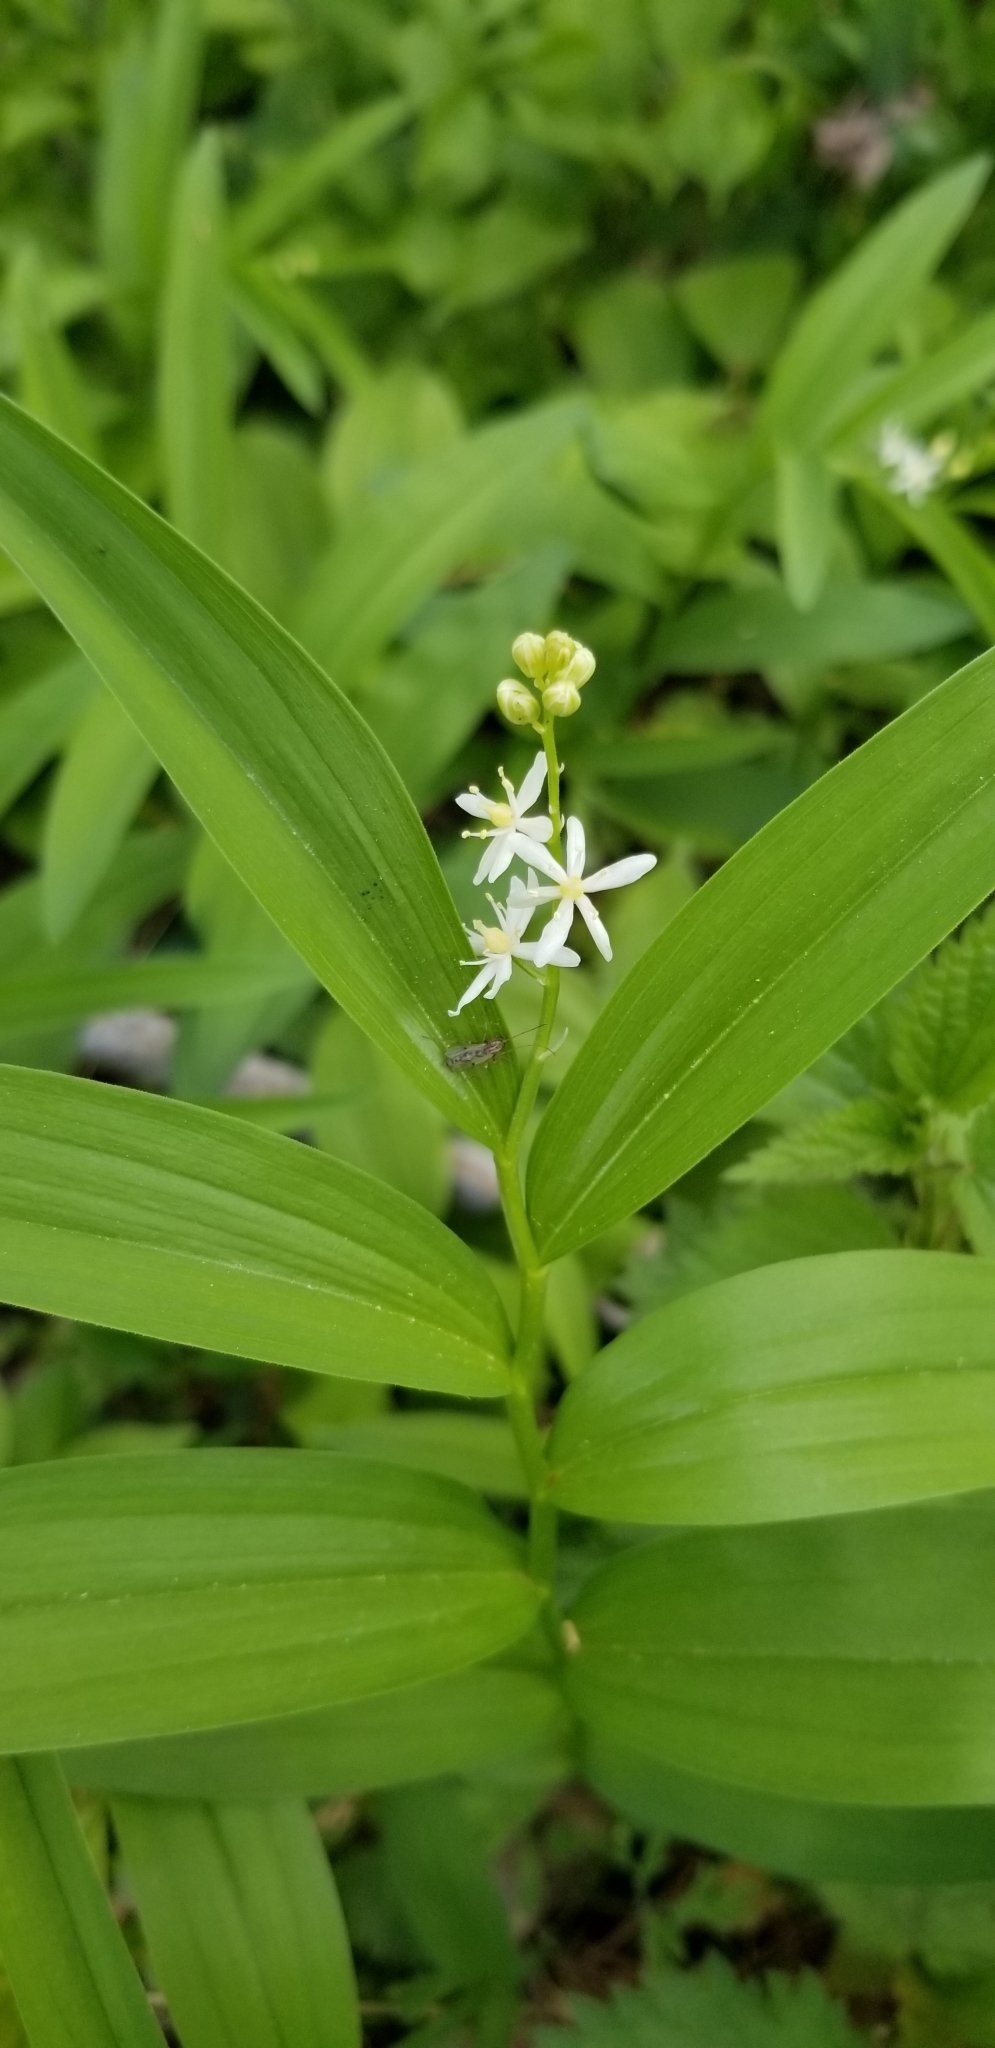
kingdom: Plantae
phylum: Tracheophyta
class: Liliopsida
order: Asparagales
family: Asparagaceae
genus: Maianthemum
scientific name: Maianthemum stellatum
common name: Little false solomon's seal
